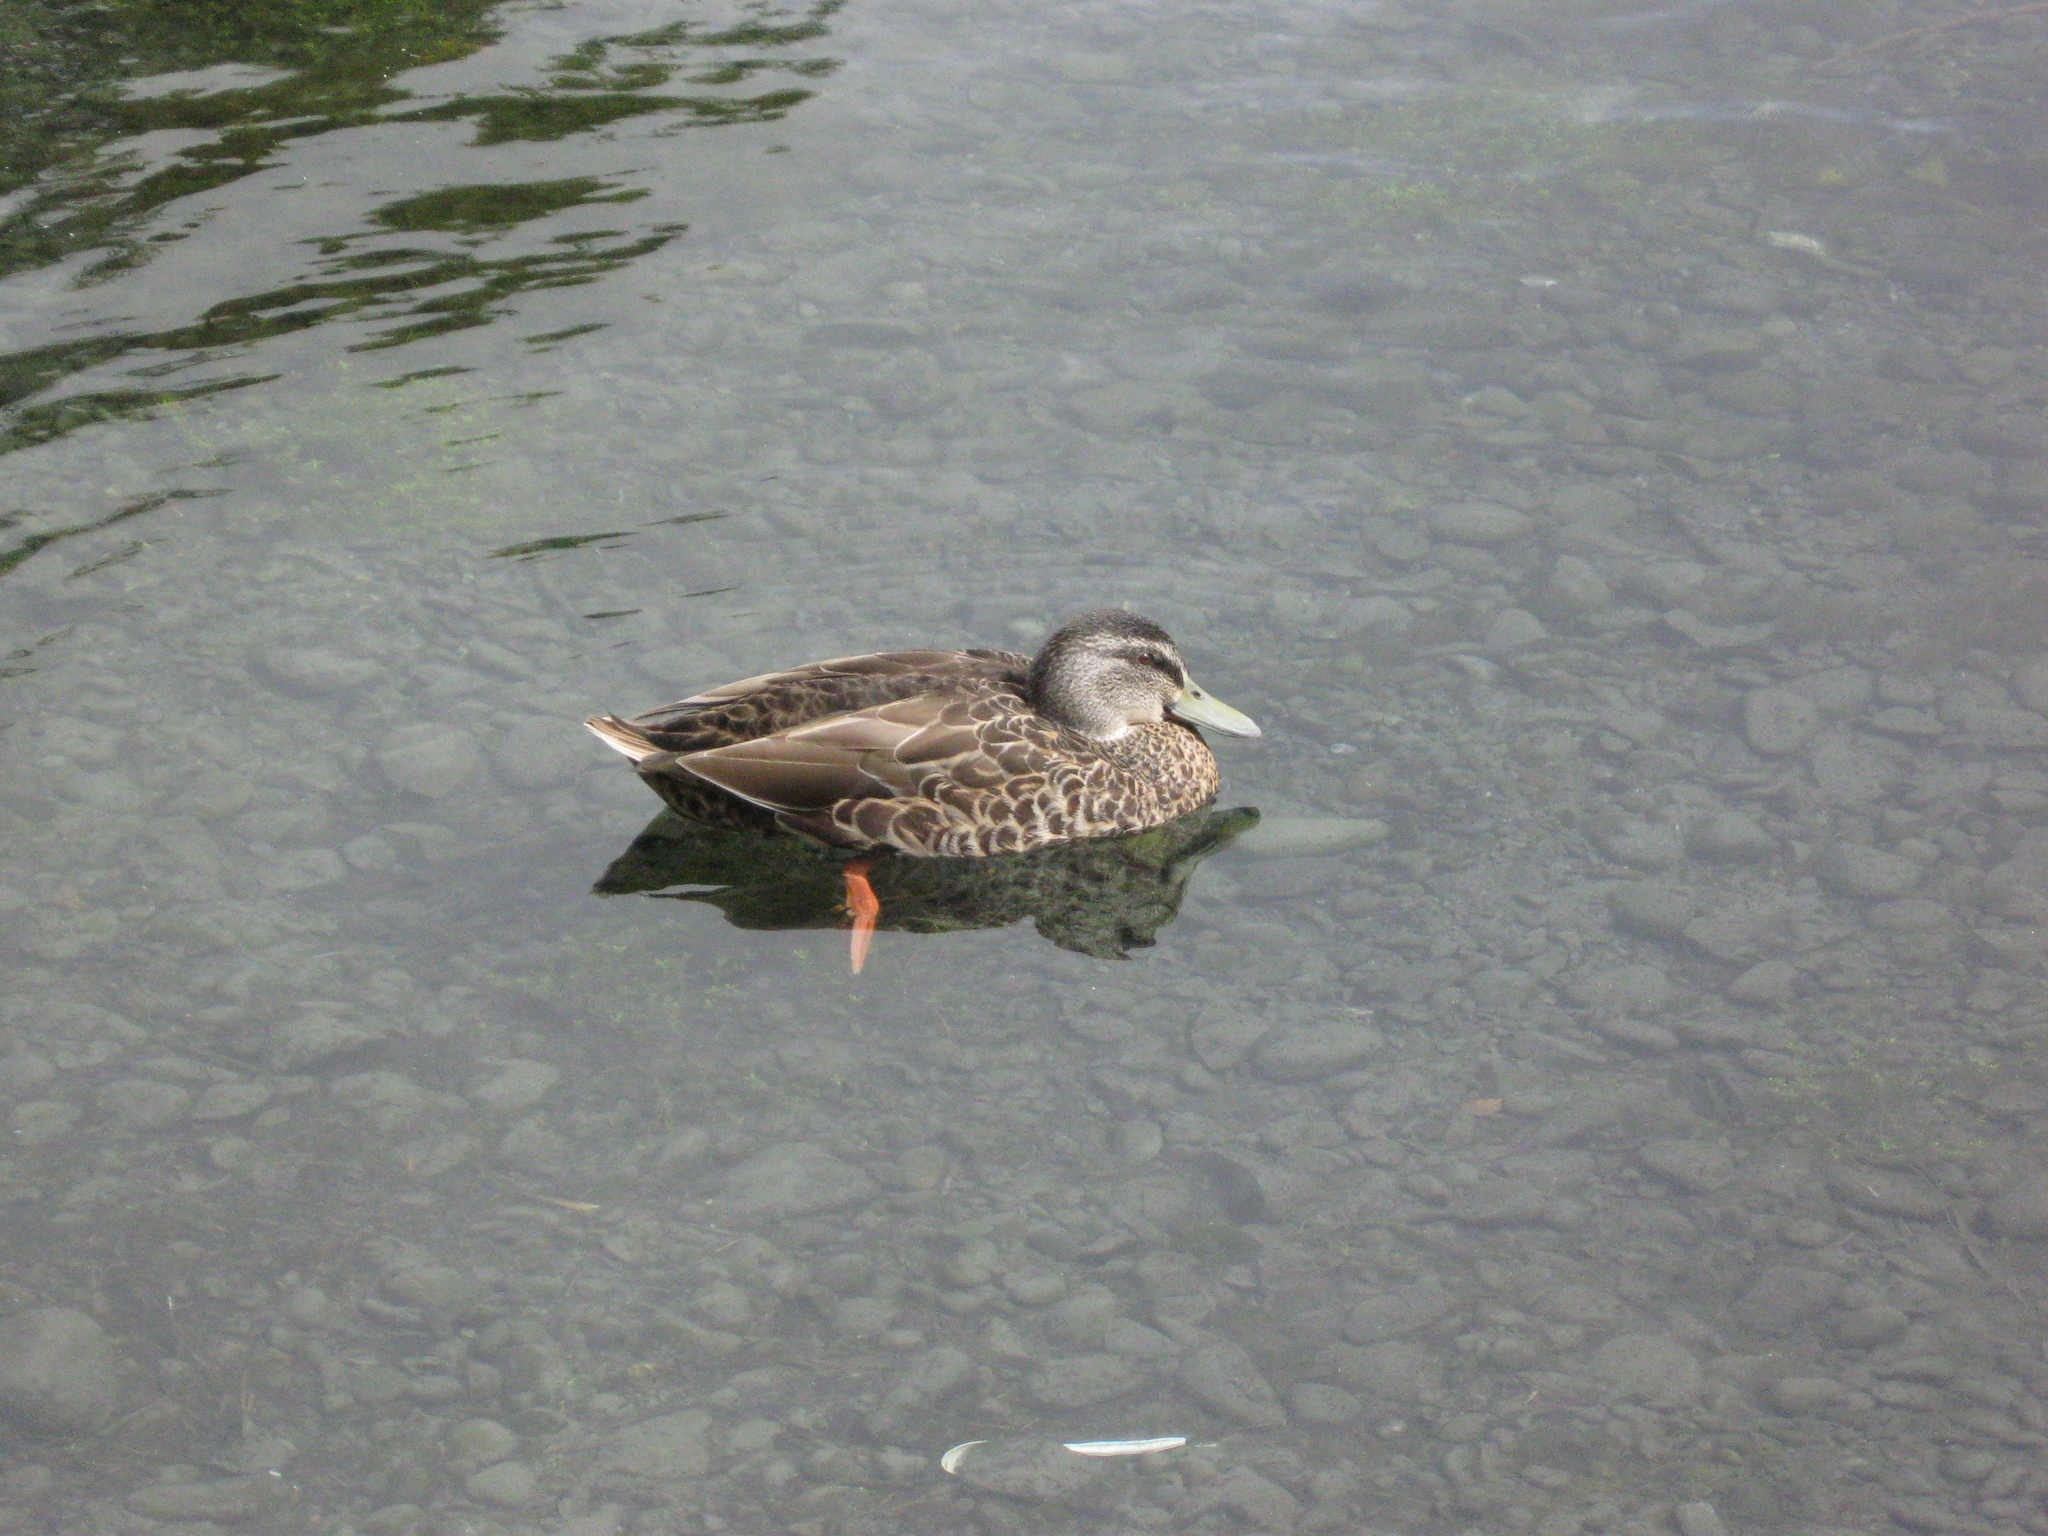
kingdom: Animalia
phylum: Chordata
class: Aves
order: Anseriformes
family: Anatidae
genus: Anas
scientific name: Anas
